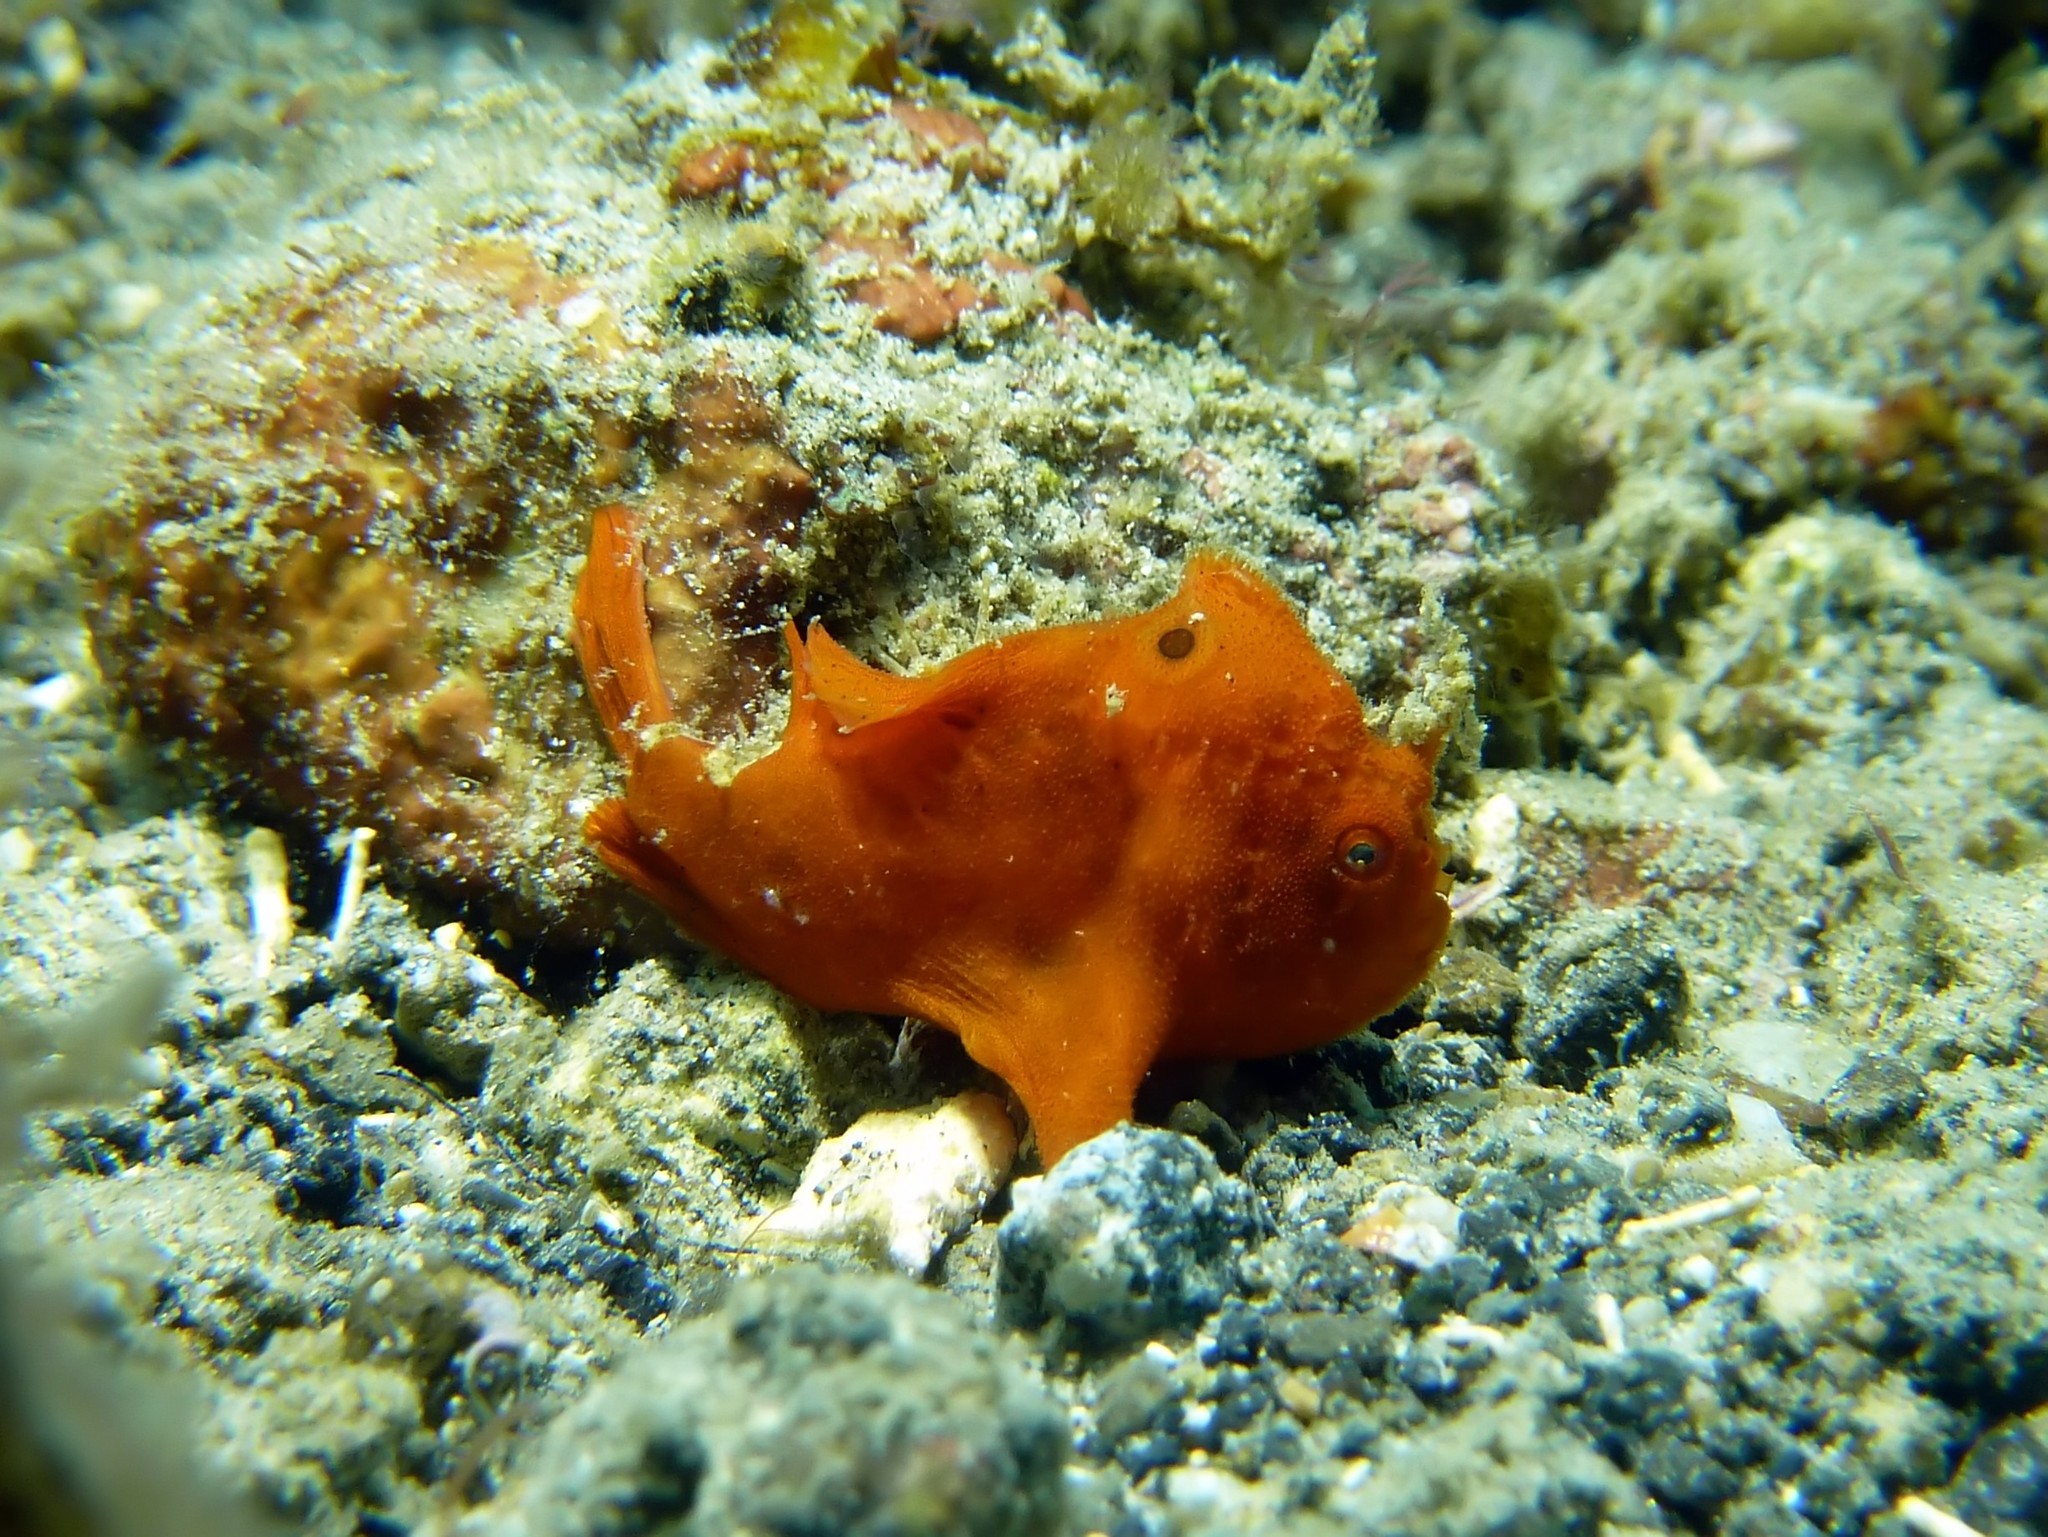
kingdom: Animalia
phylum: Chordata
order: Lophiiformes
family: Antennariidae
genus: Antennarius
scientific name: Antennarius pictus
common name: Painted frogfish
